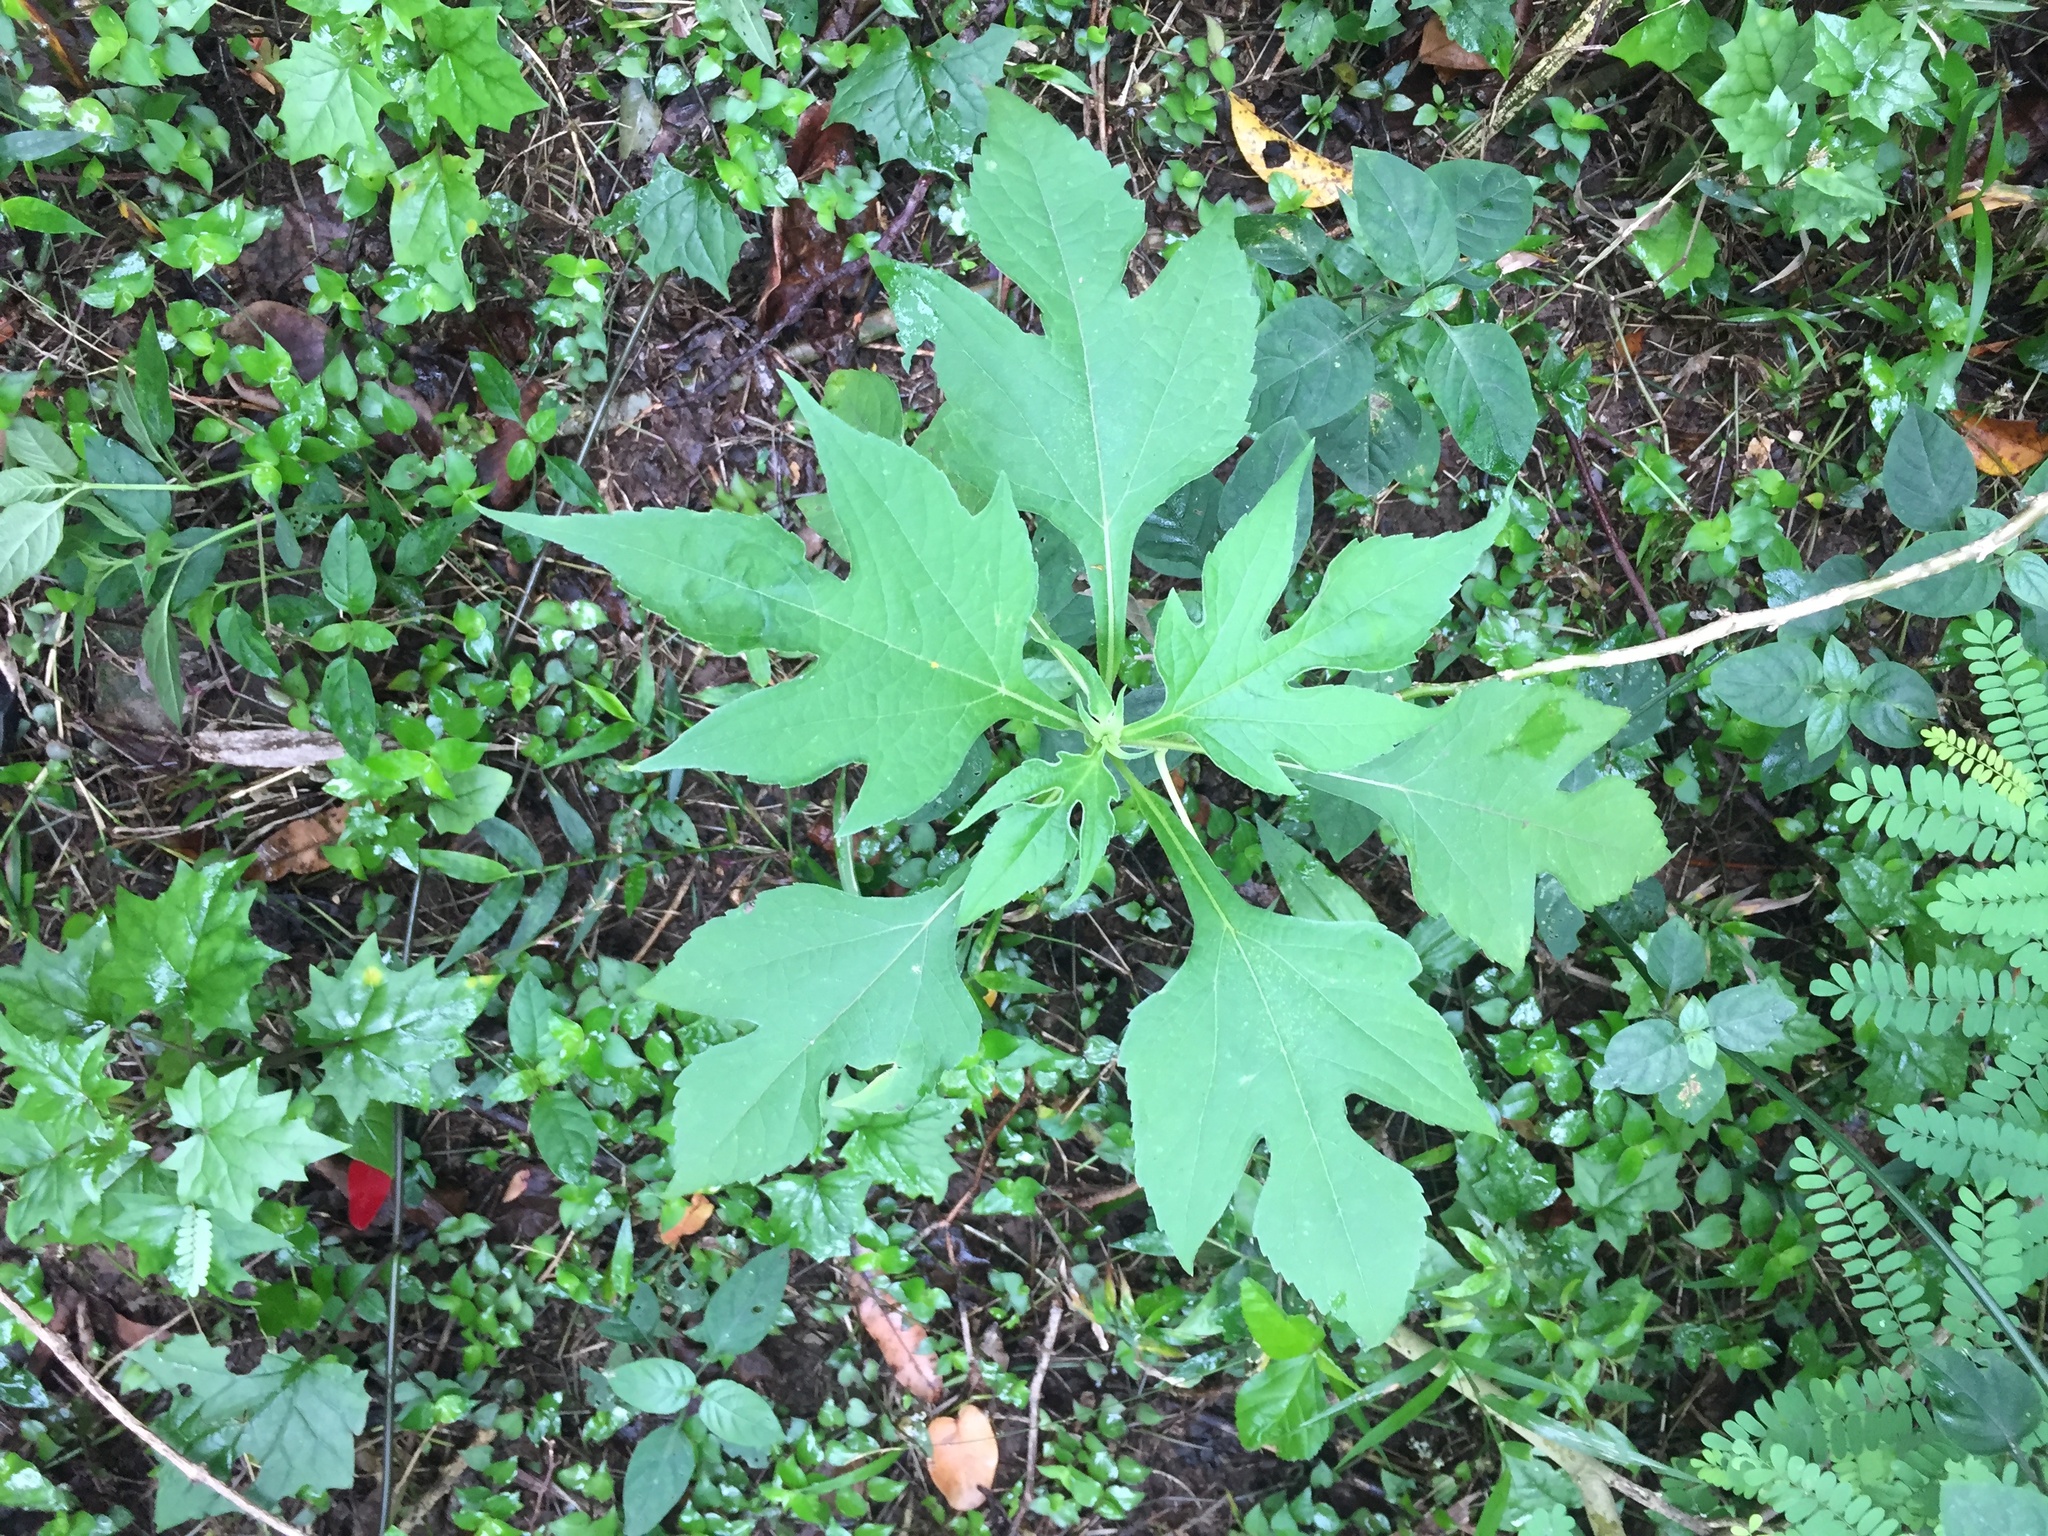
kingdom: Plantae
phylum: Tracheophyta
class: Magnoliopsida
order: Asterales
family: Asteraceae
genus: Tithonia
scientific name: Tithonia diversifolia
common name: Tree marigold
